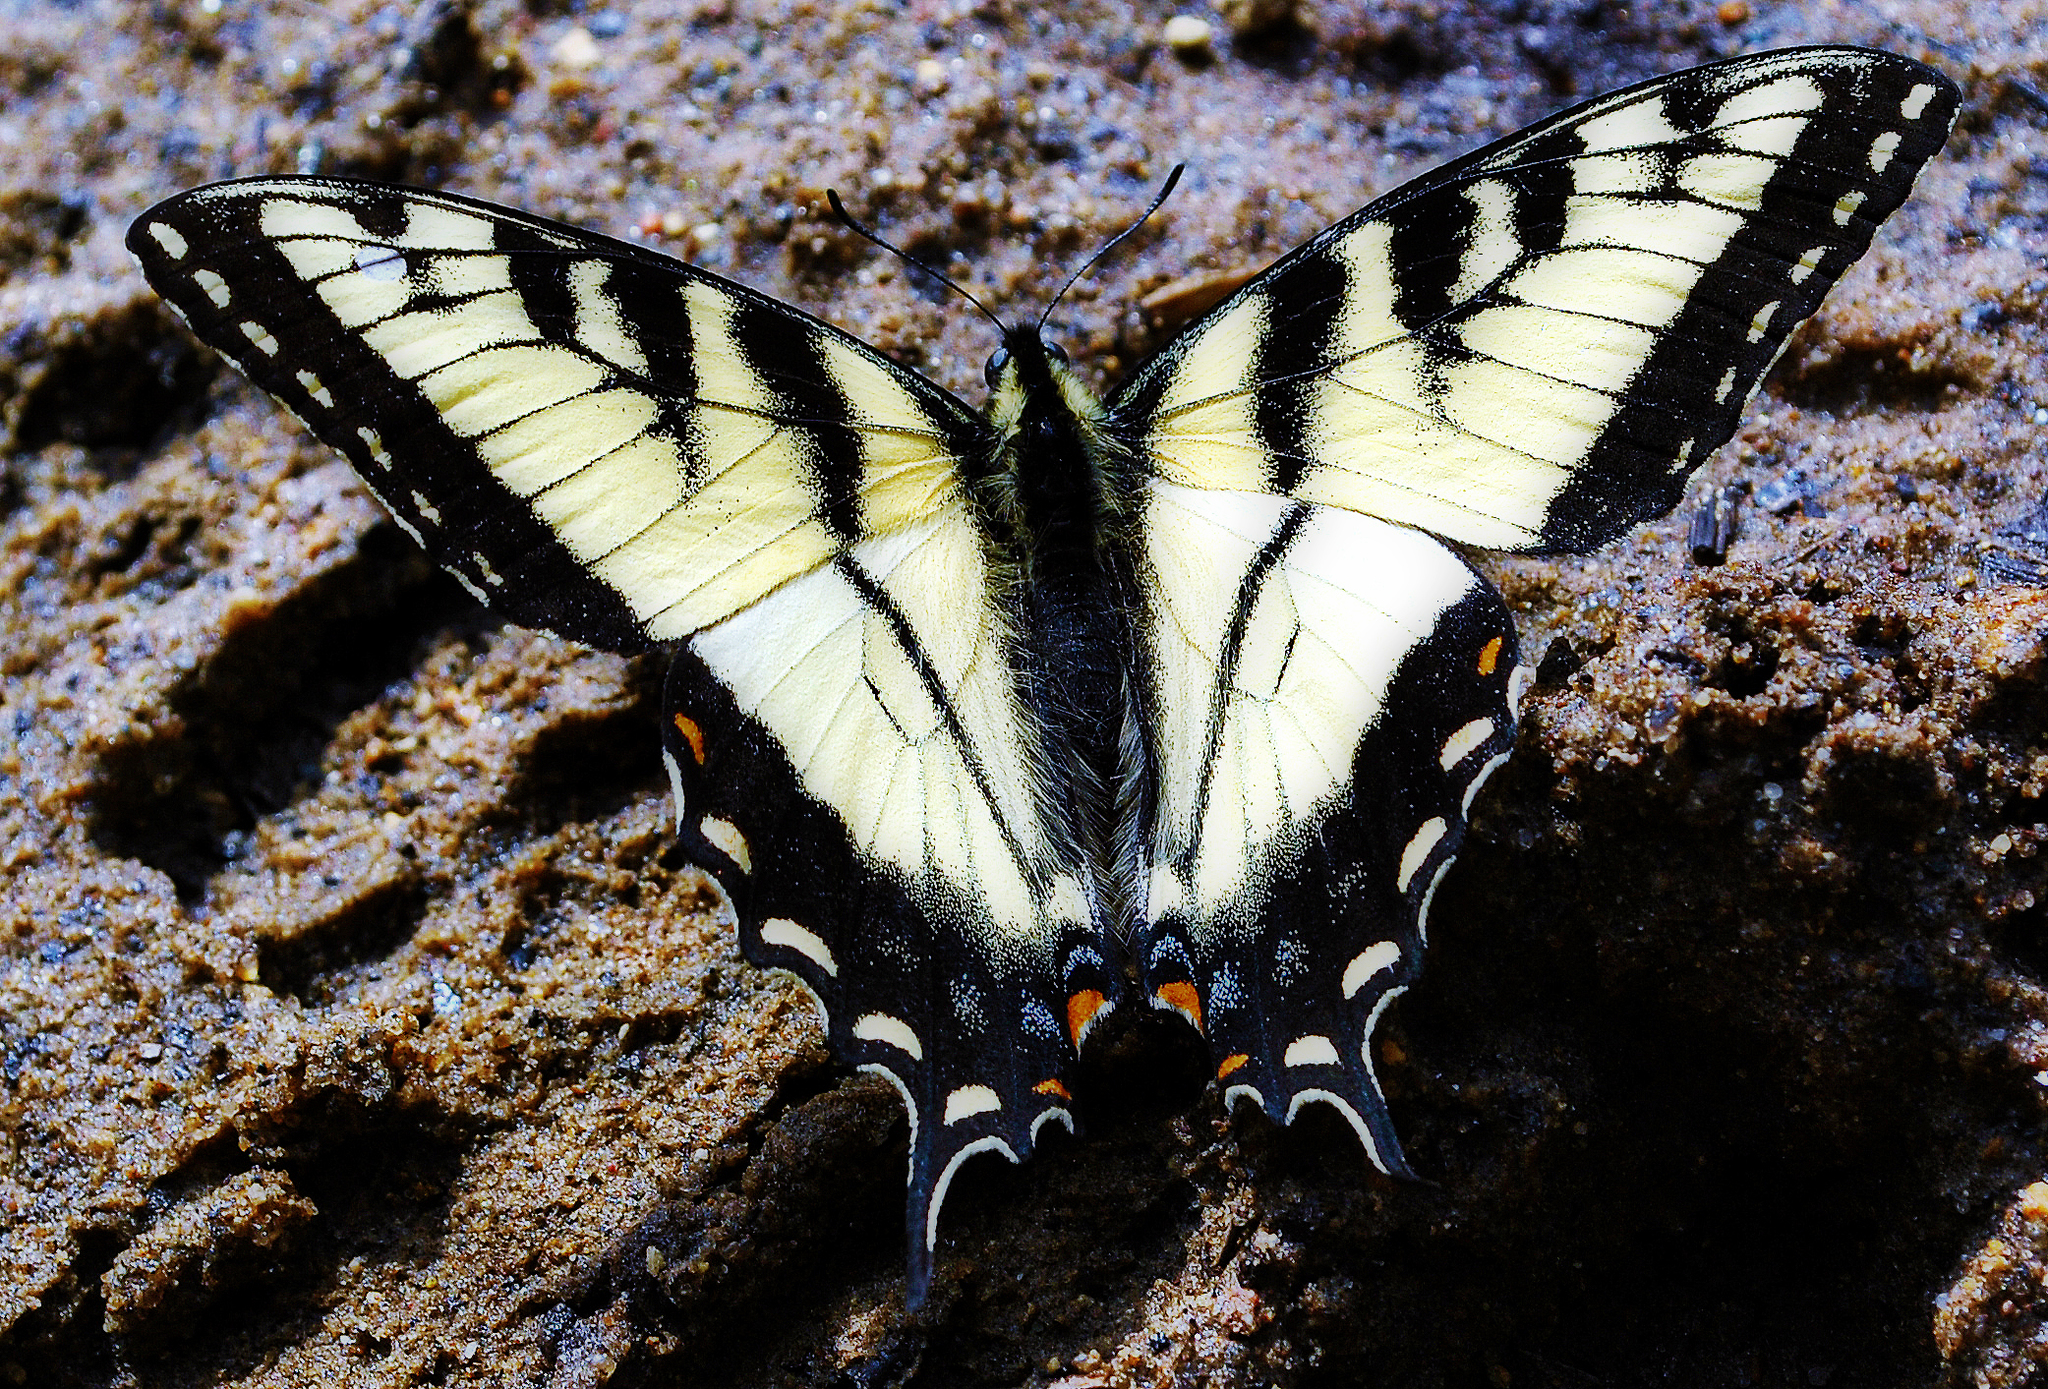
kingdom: Animalia
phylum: Arthropoda
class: Insecta
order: Lepidoptera
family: Papilionidae
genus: Papilio
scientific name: Papilio glaucus
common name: Tiger swallowtail
